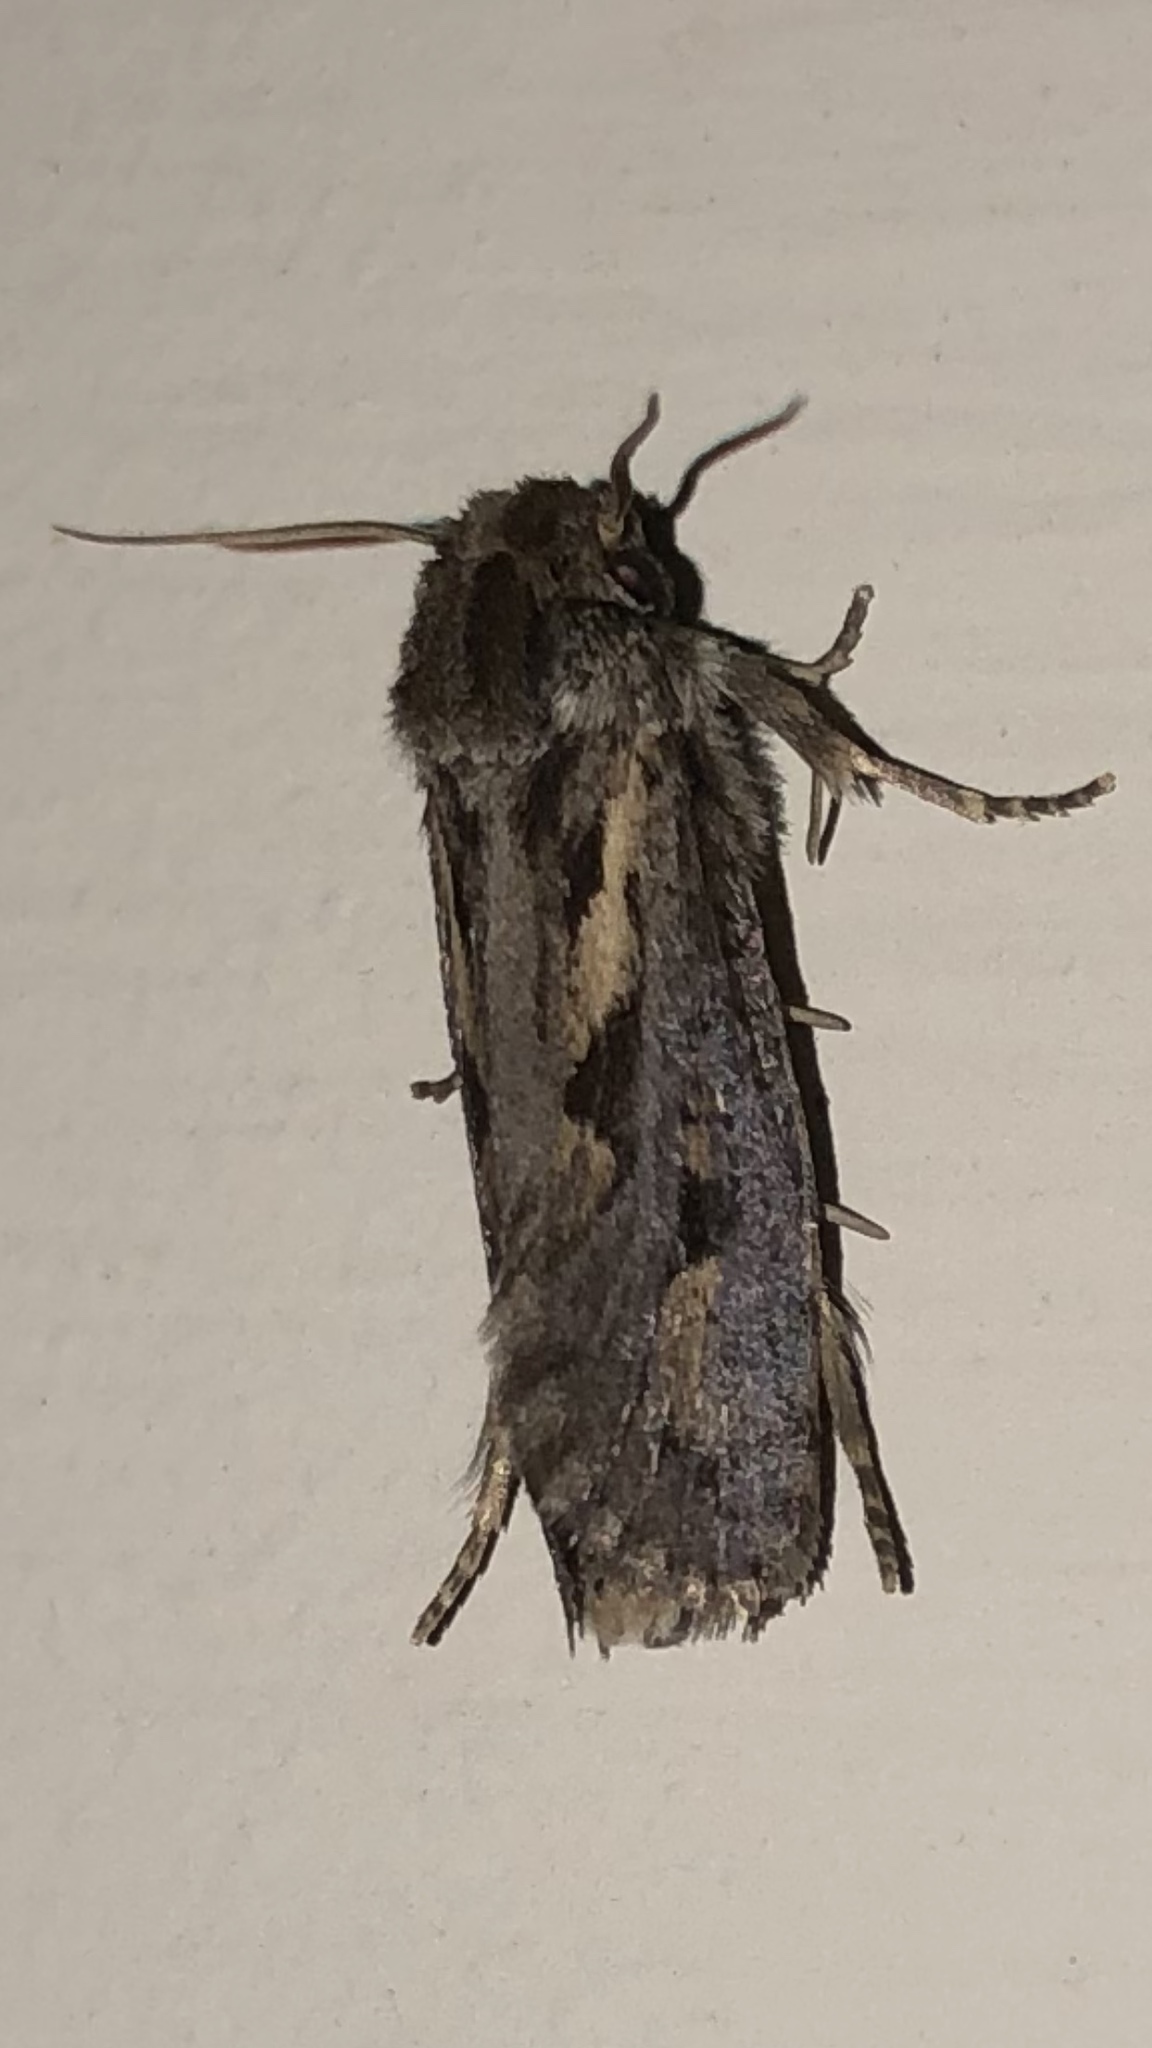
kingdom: Animalia
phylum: Arthropoda
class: Insecta
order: Lepidoptera
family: Tineidae
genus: Acrolophus
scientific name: Acrolophus popeanella
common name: Clemens' grass tubeworm moth
